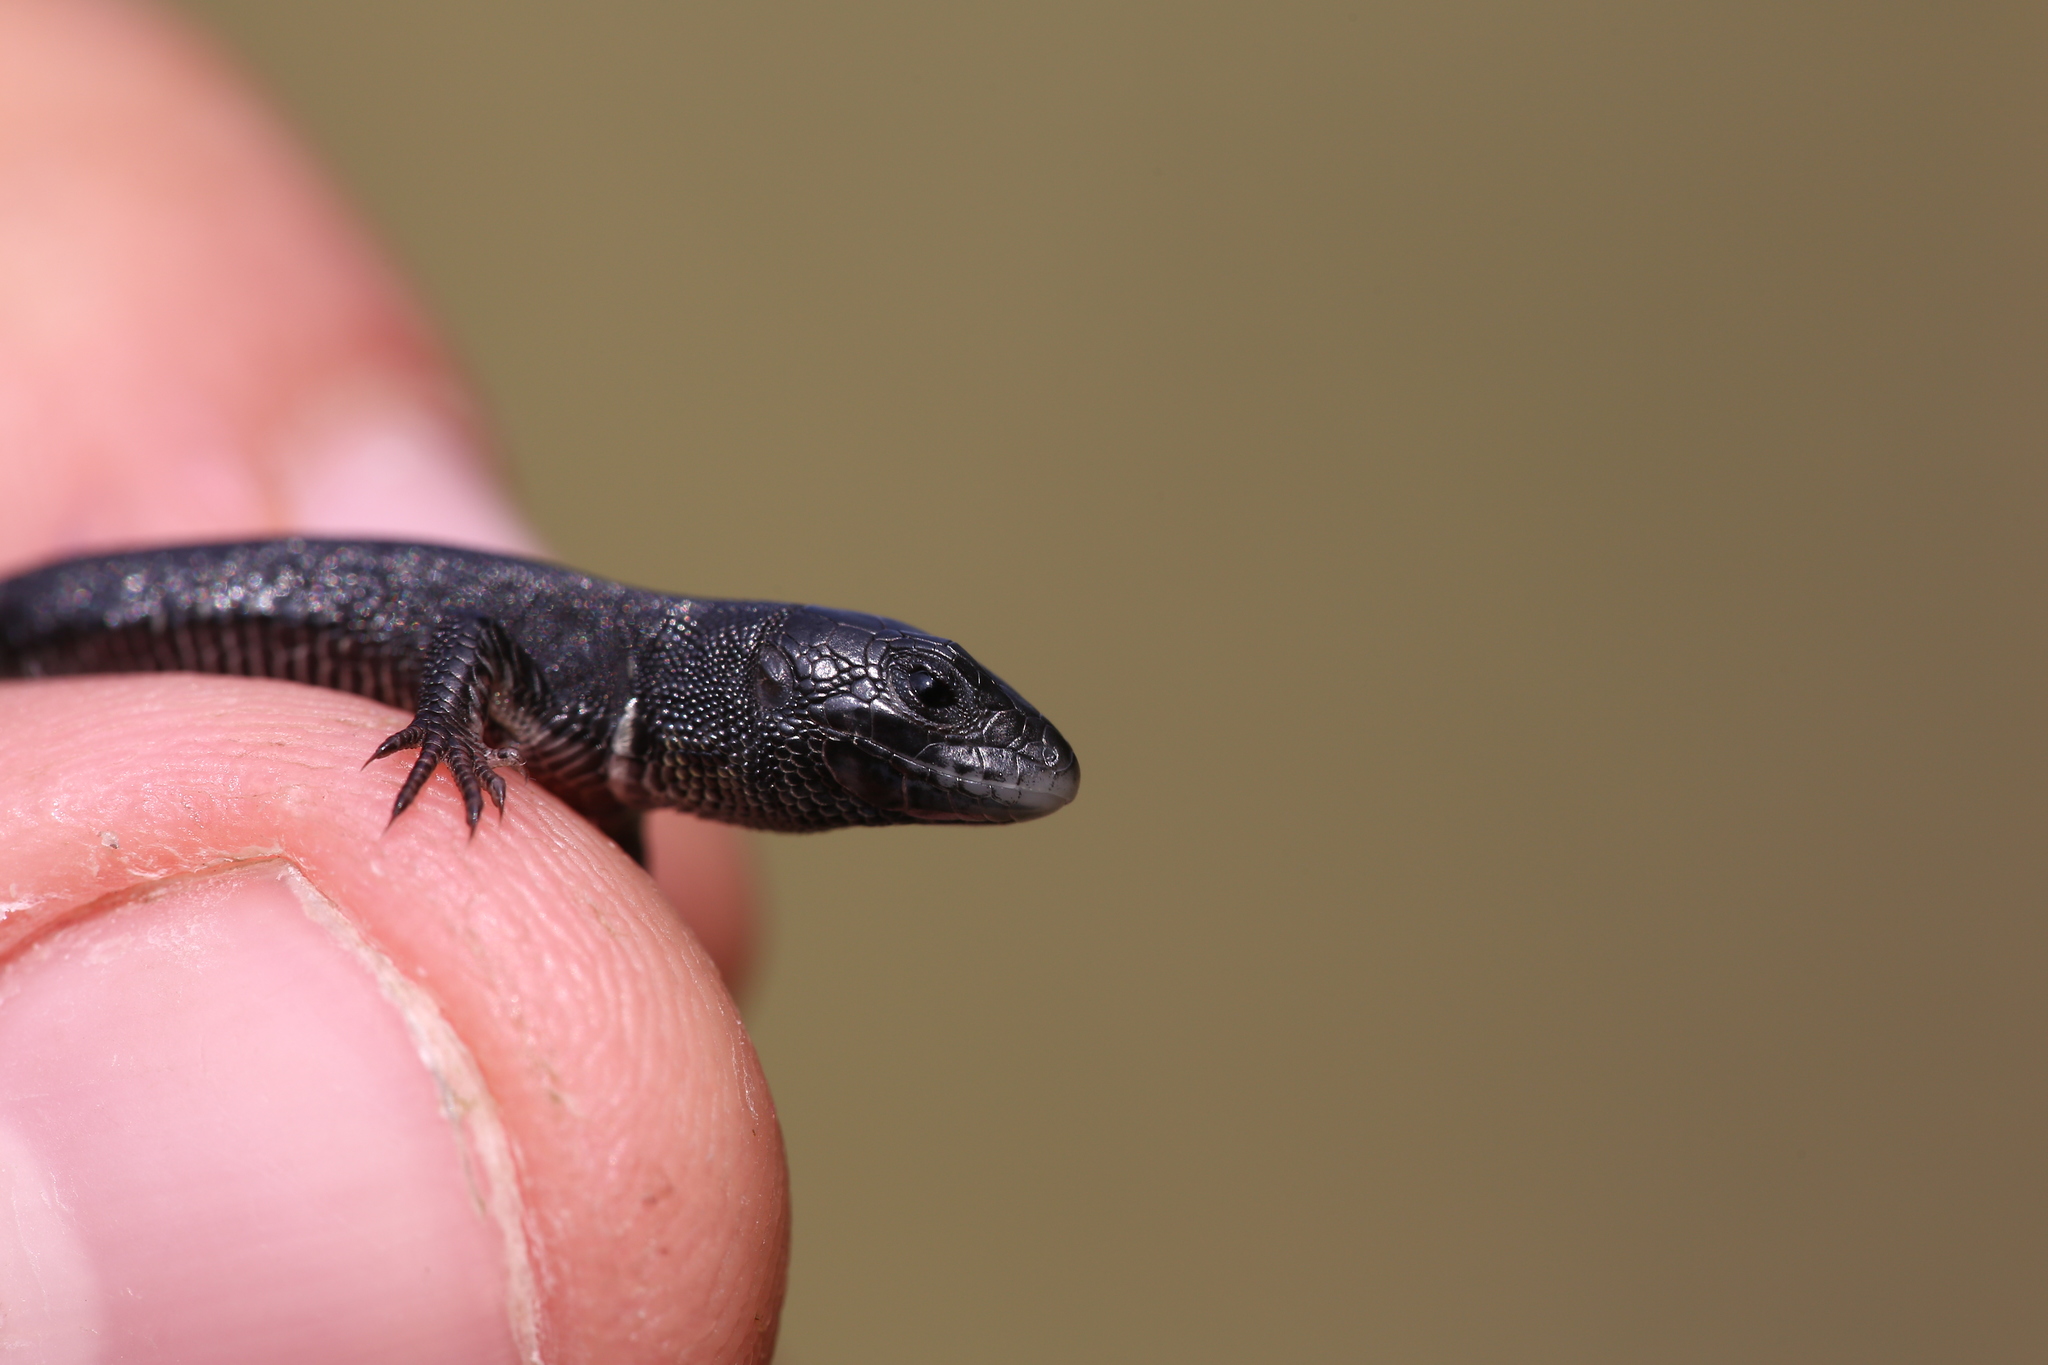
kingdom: Animalia
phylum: Chordata
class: Squamata
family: Lacertidae
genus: Lacerta
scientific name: Lacerta agilis
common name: Sand lizard
